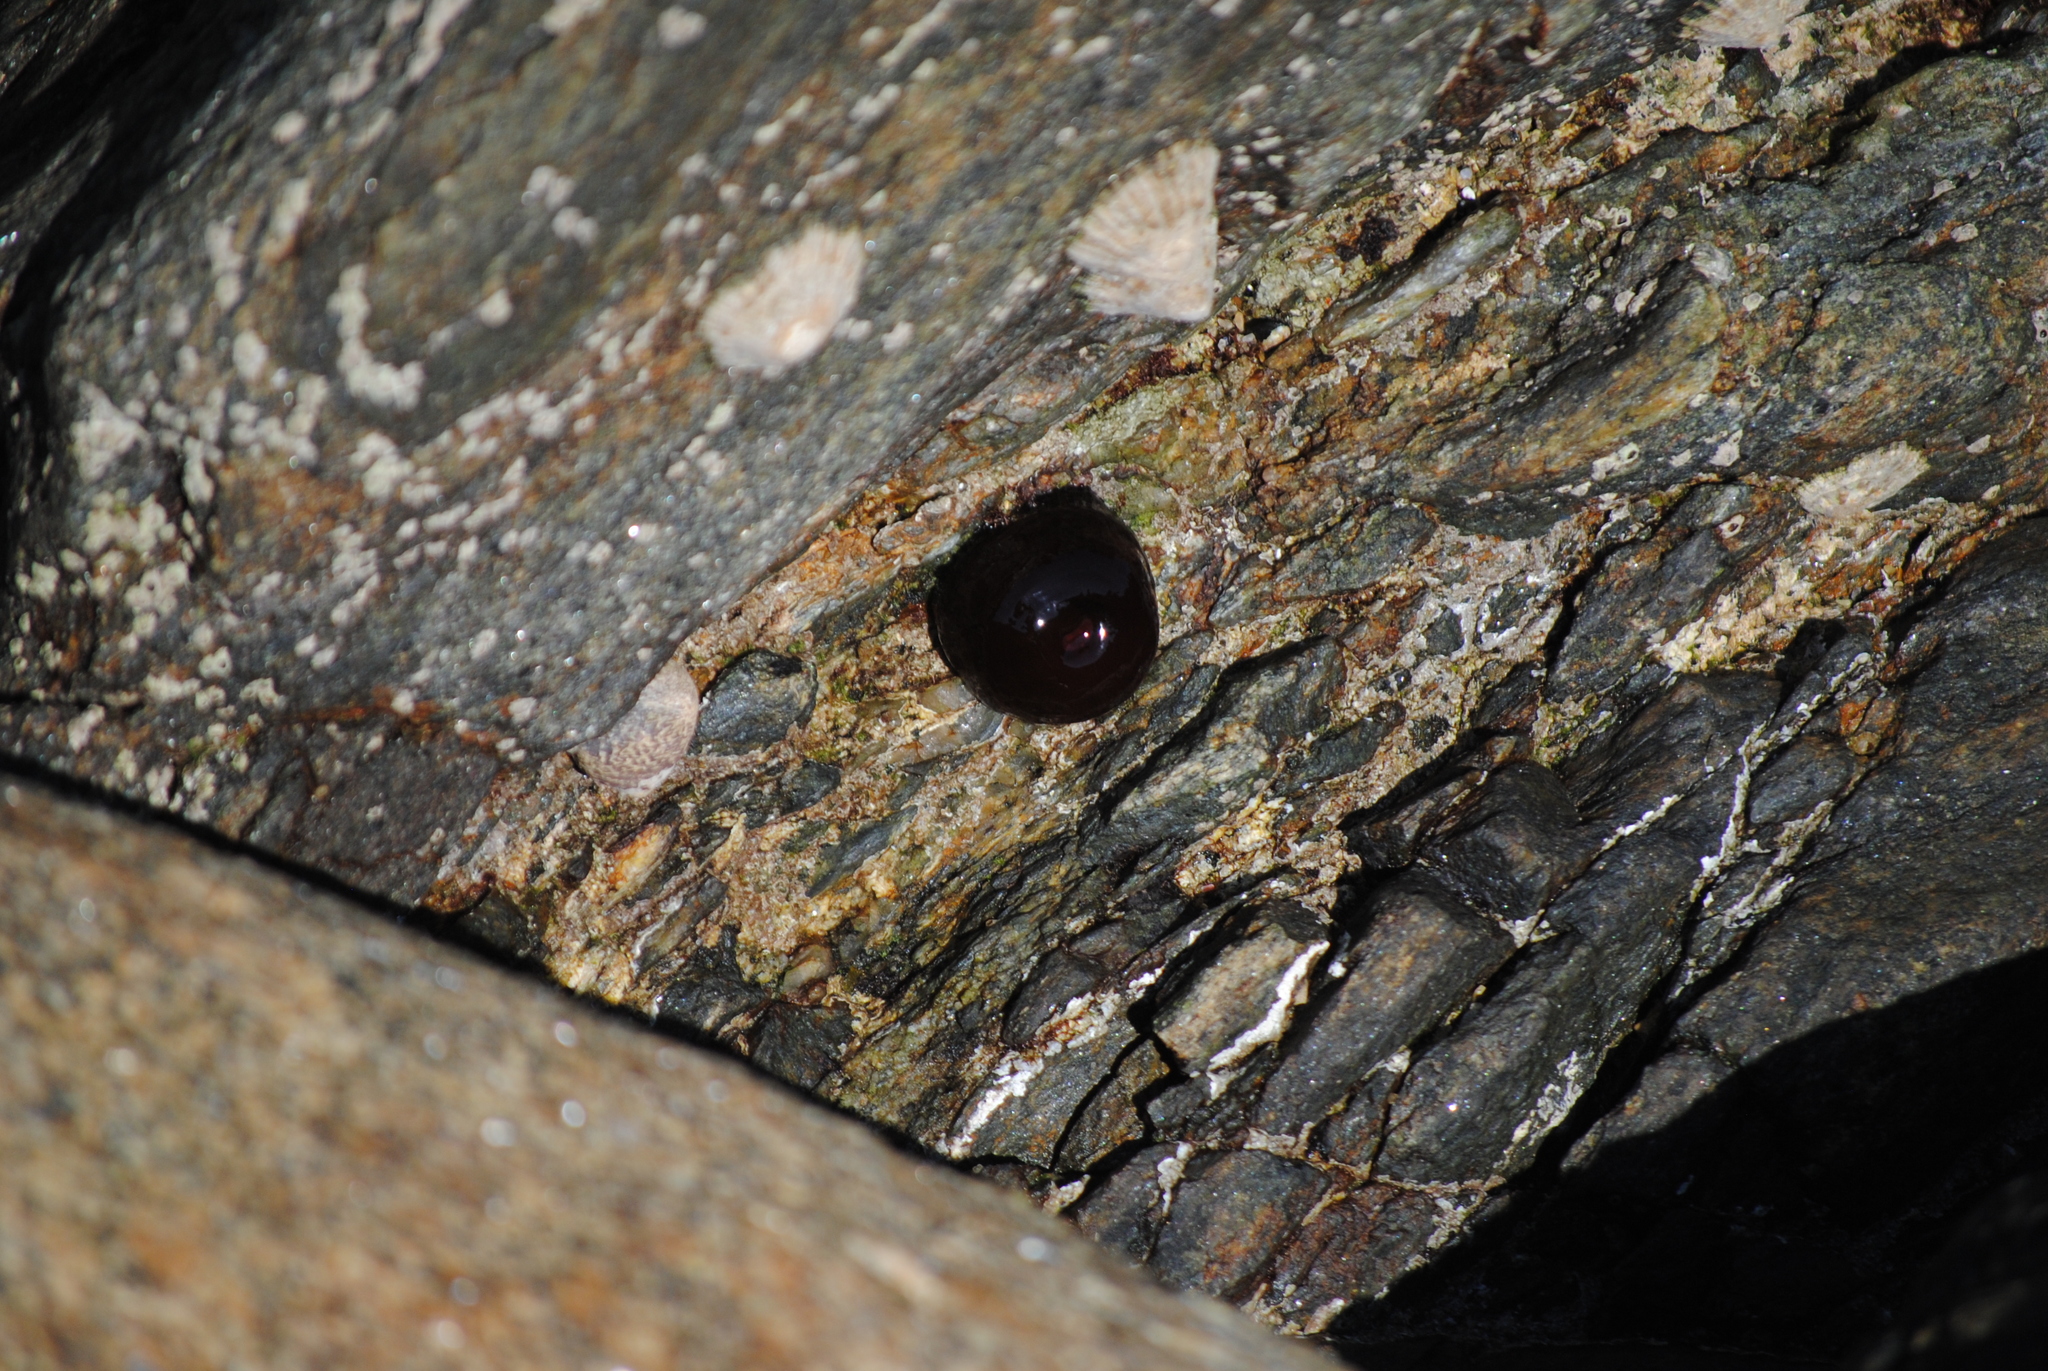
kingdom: Animalia
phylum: Cnidaria
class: Anthozoa
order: Actiniaria
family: Actiniidae
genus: Actinia
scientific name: Actinia equina
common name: Beadlet anemone
